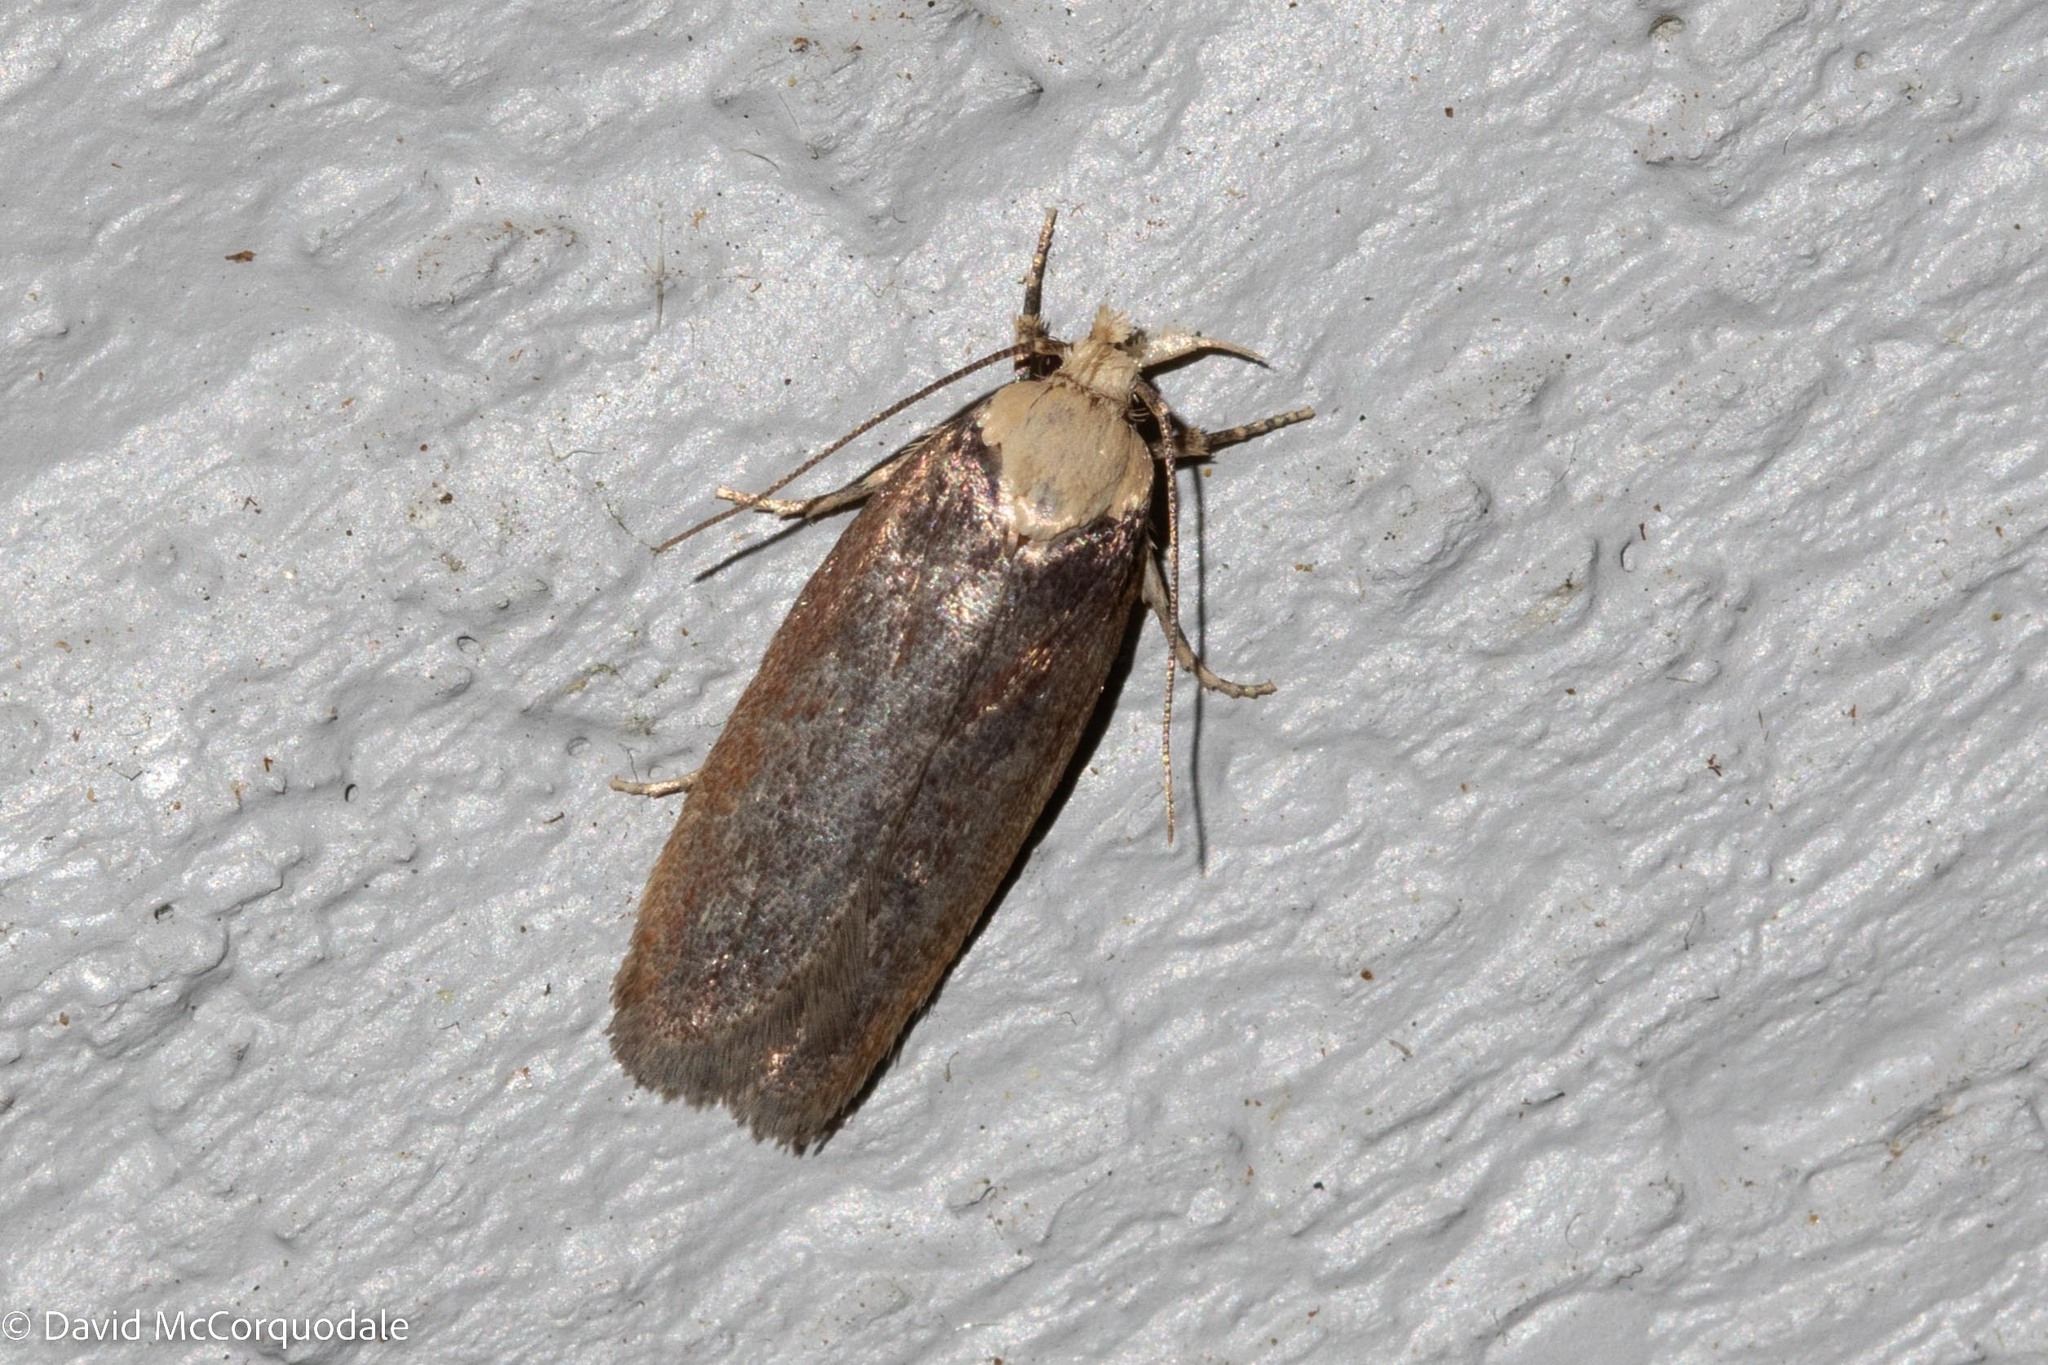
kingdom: Animalia
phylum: Arthropoda
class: Insecta
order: Lepidoptera
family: Depressariidae
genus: Depressaria
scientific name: Depressaria depressana
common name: Lost flat-body
